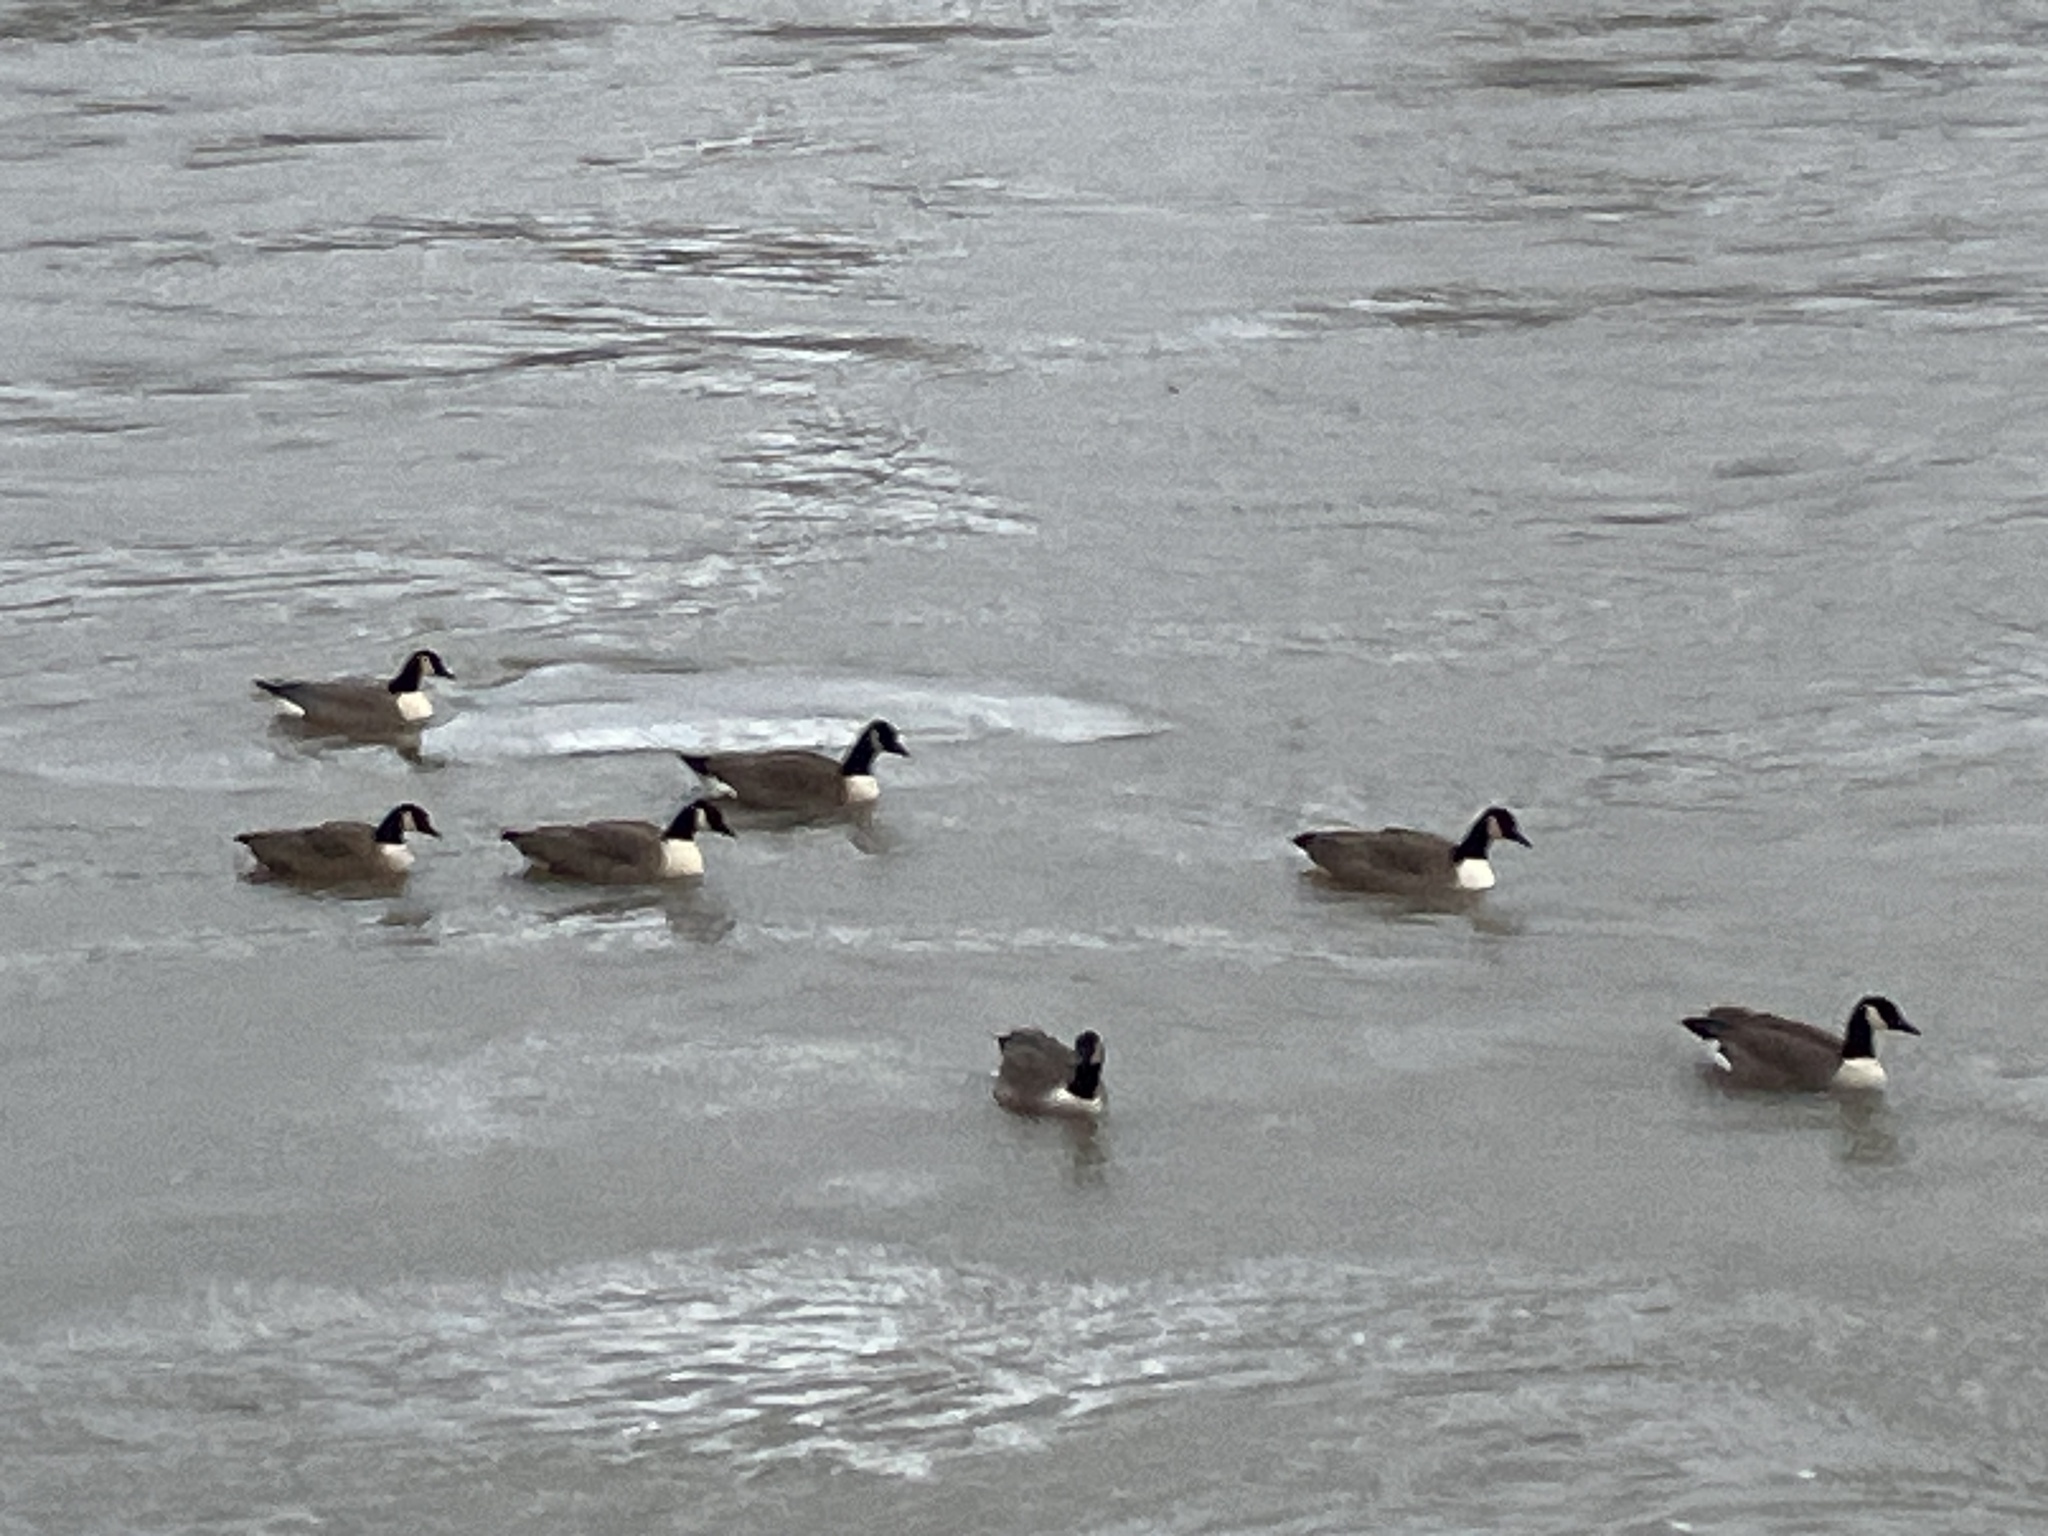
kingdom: Animalia
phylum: Chordata
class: Aves
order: Anseriformes
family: Anatidae
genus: Branta
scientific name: Branta canadensis
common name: Canada goose
